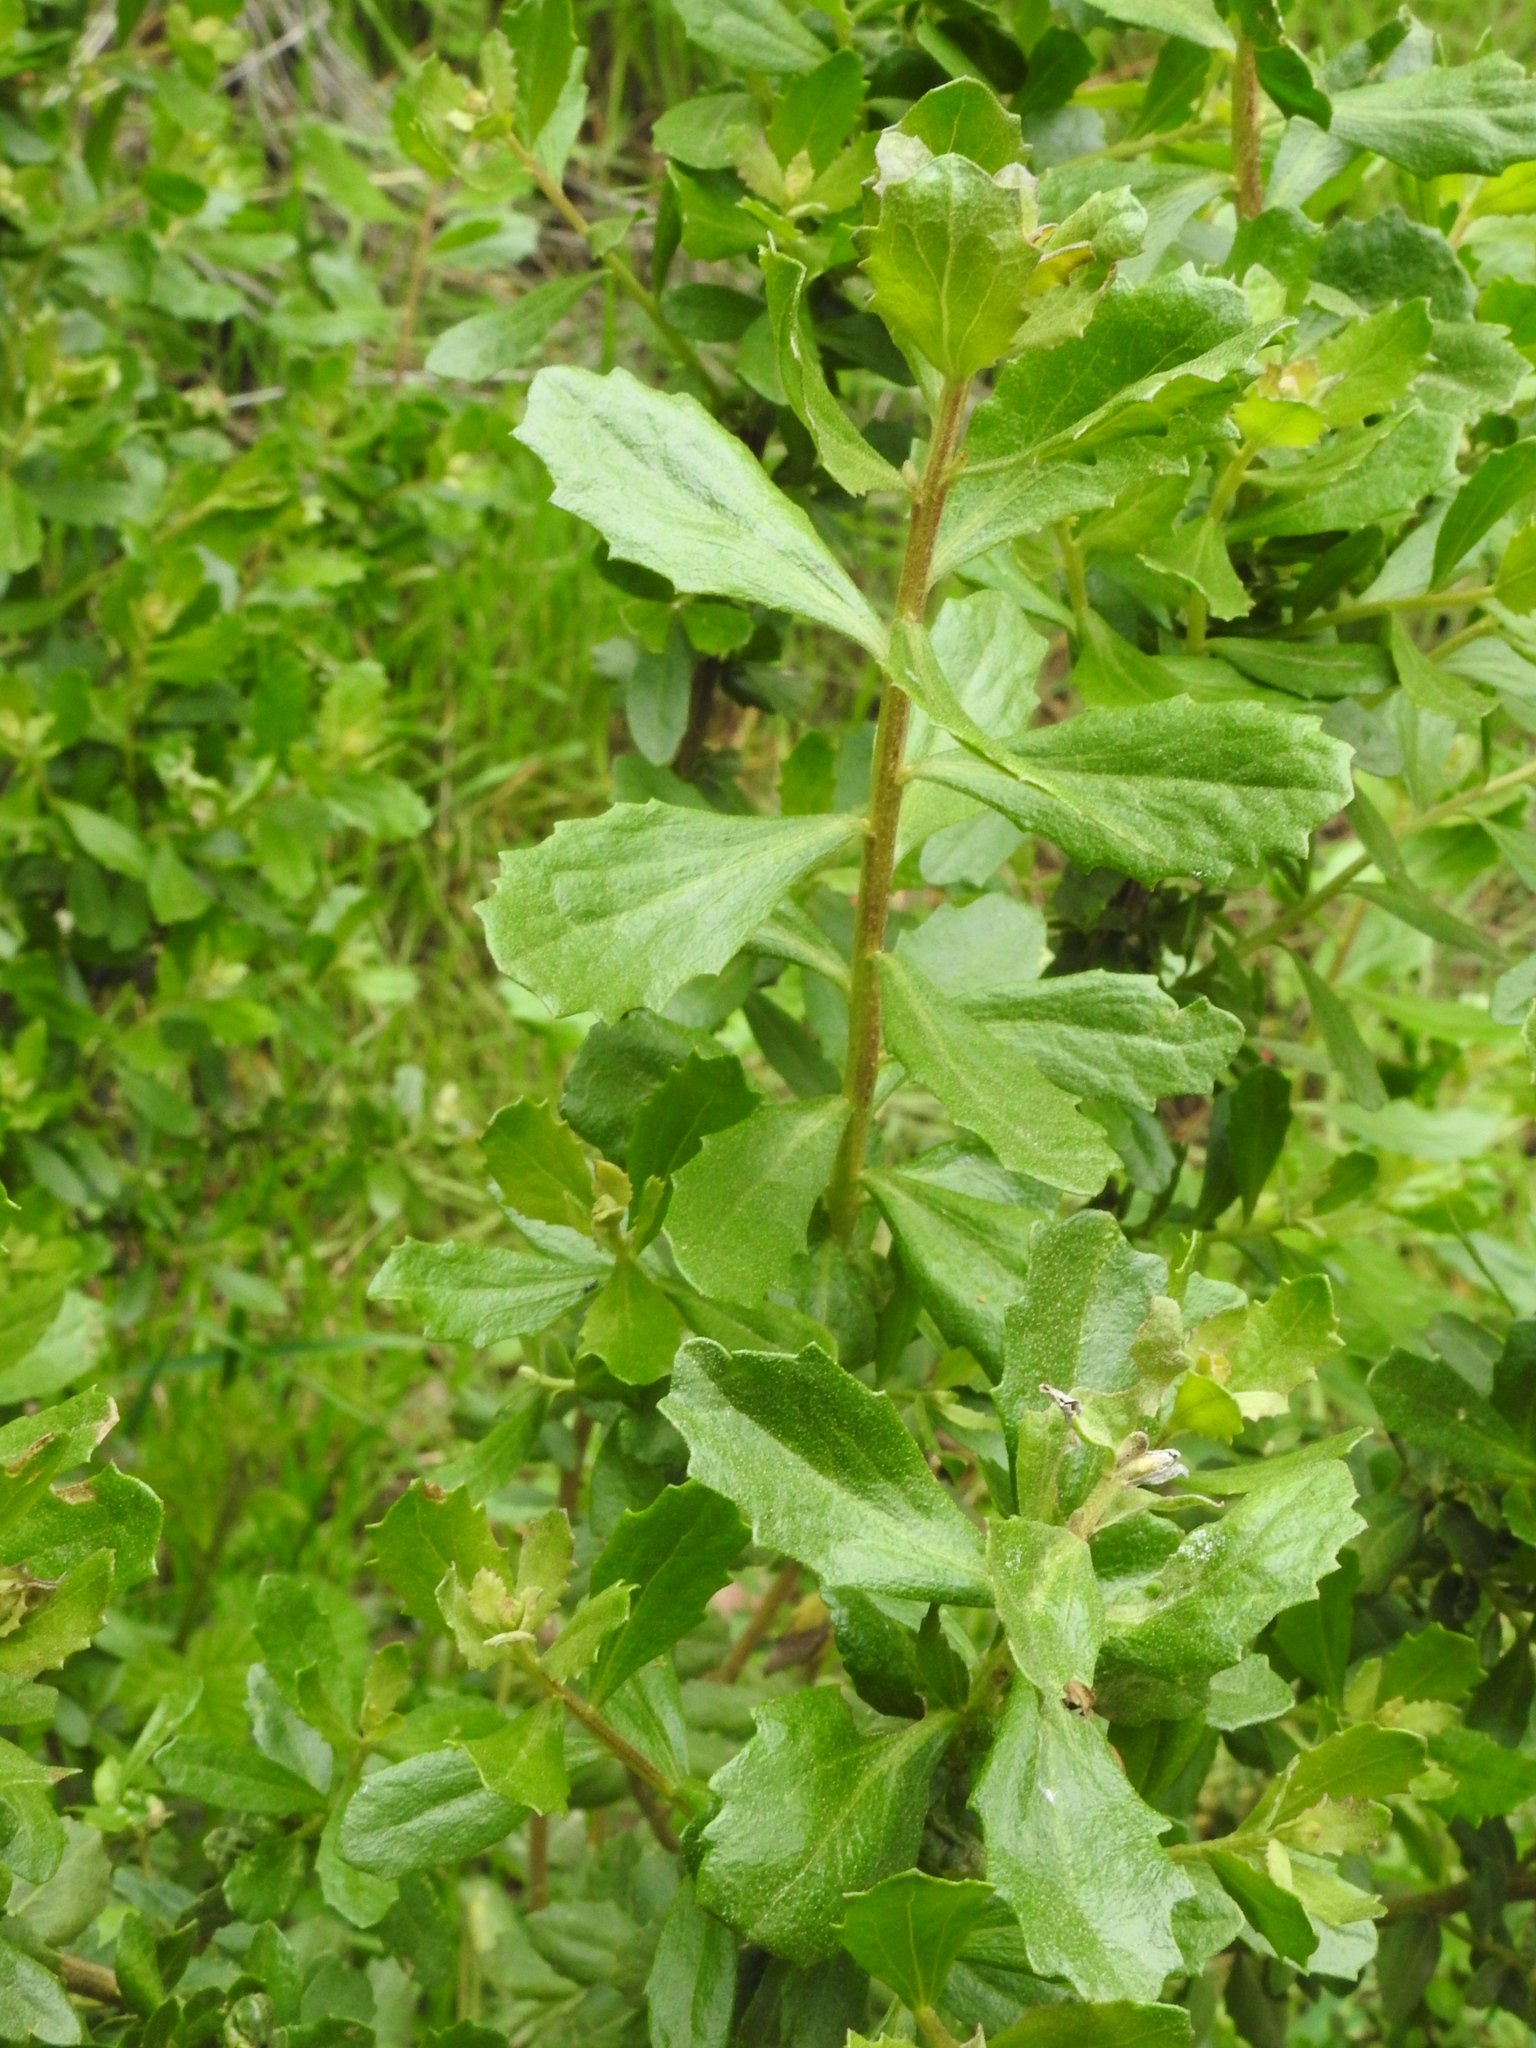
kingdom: Plantae
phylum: Tracheophyta
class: Magnoliopsida
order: Asterales
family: Asteraceae
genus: Baccharis
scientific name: Baccharis pilularis
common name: Coyotebrush
